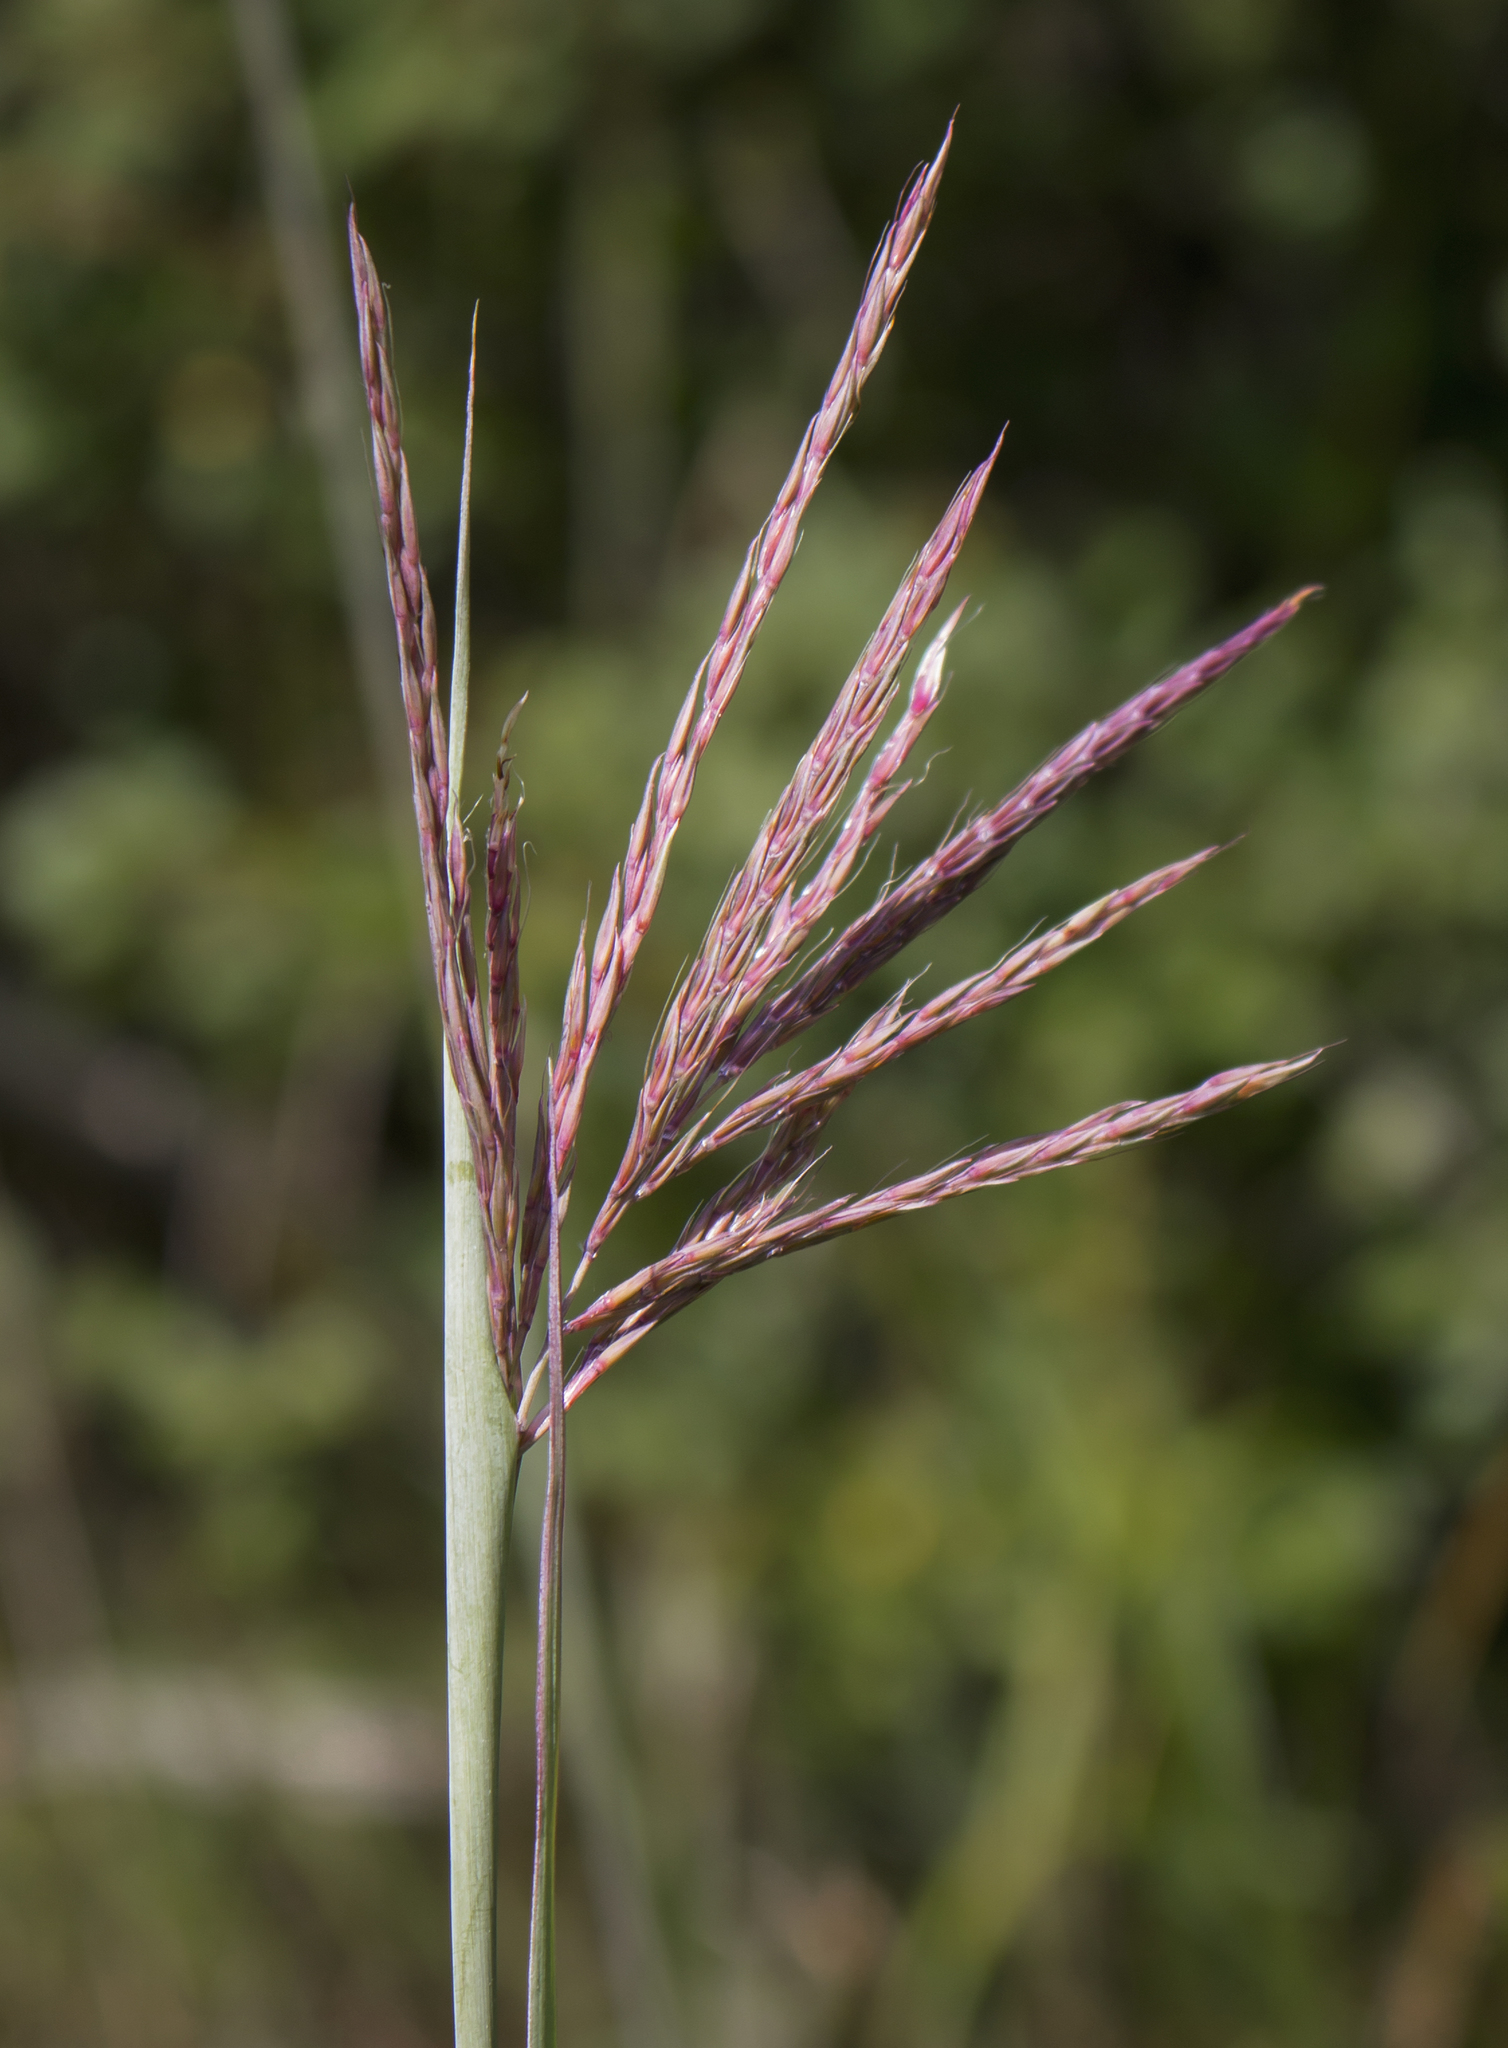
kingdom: Plantae
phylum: Tracheophyta
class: Liliopsida
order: Poales
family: Poaceae
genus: Andropogon
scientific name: Andropogon gerardi
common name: Big bluestem
